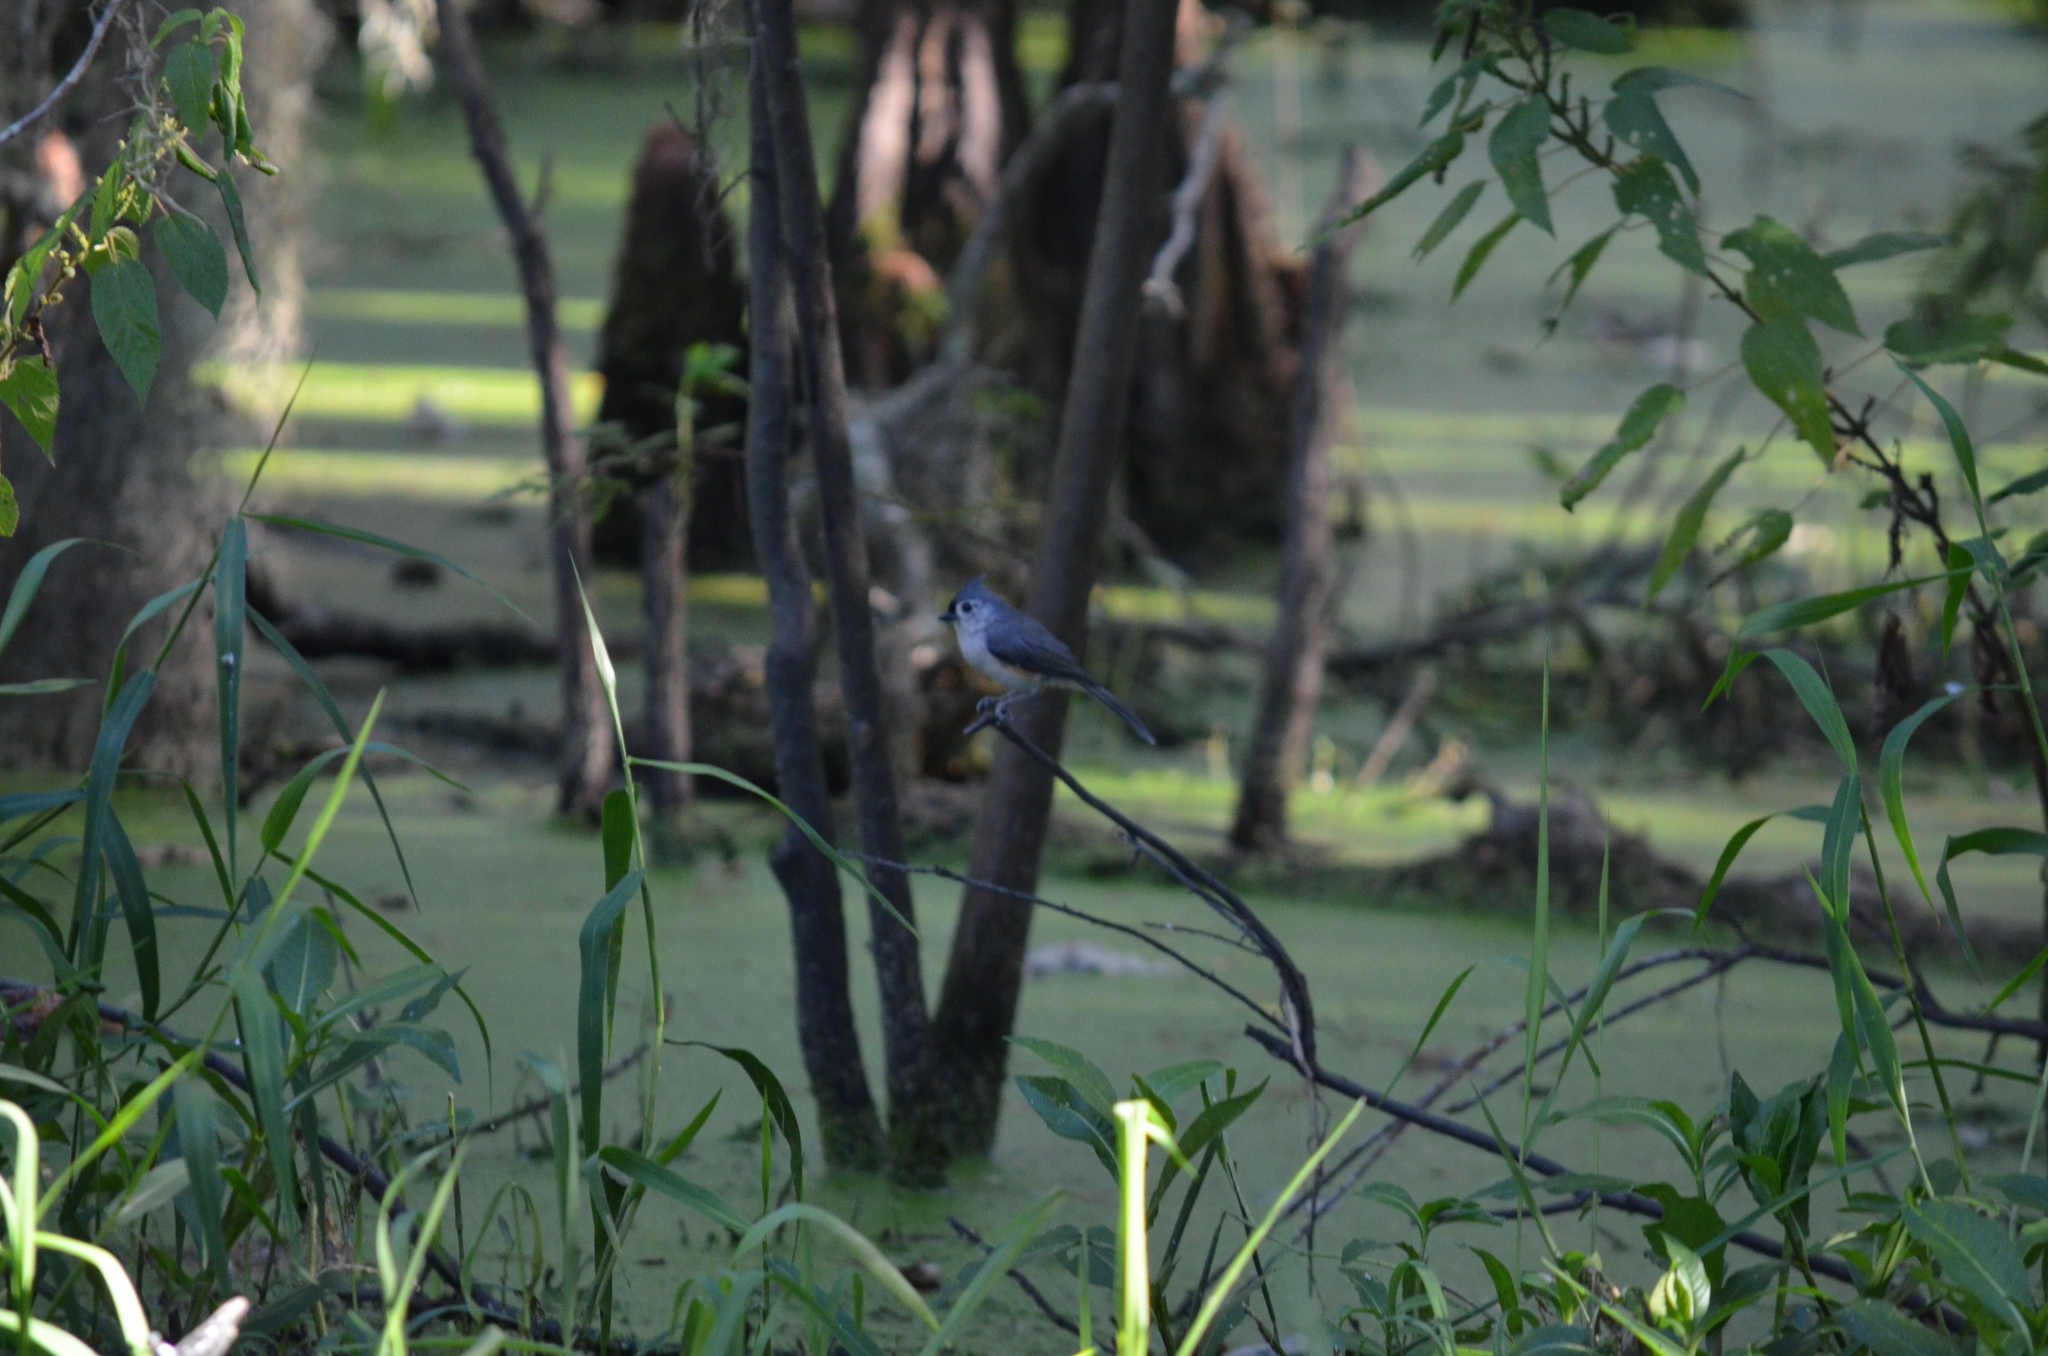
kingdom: Animalia
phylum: Chordata
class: Aves
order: Passeriformes
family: Paridae
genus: Baeolophus
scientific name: Baeolophus bicolor
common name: Tufted titmouse
